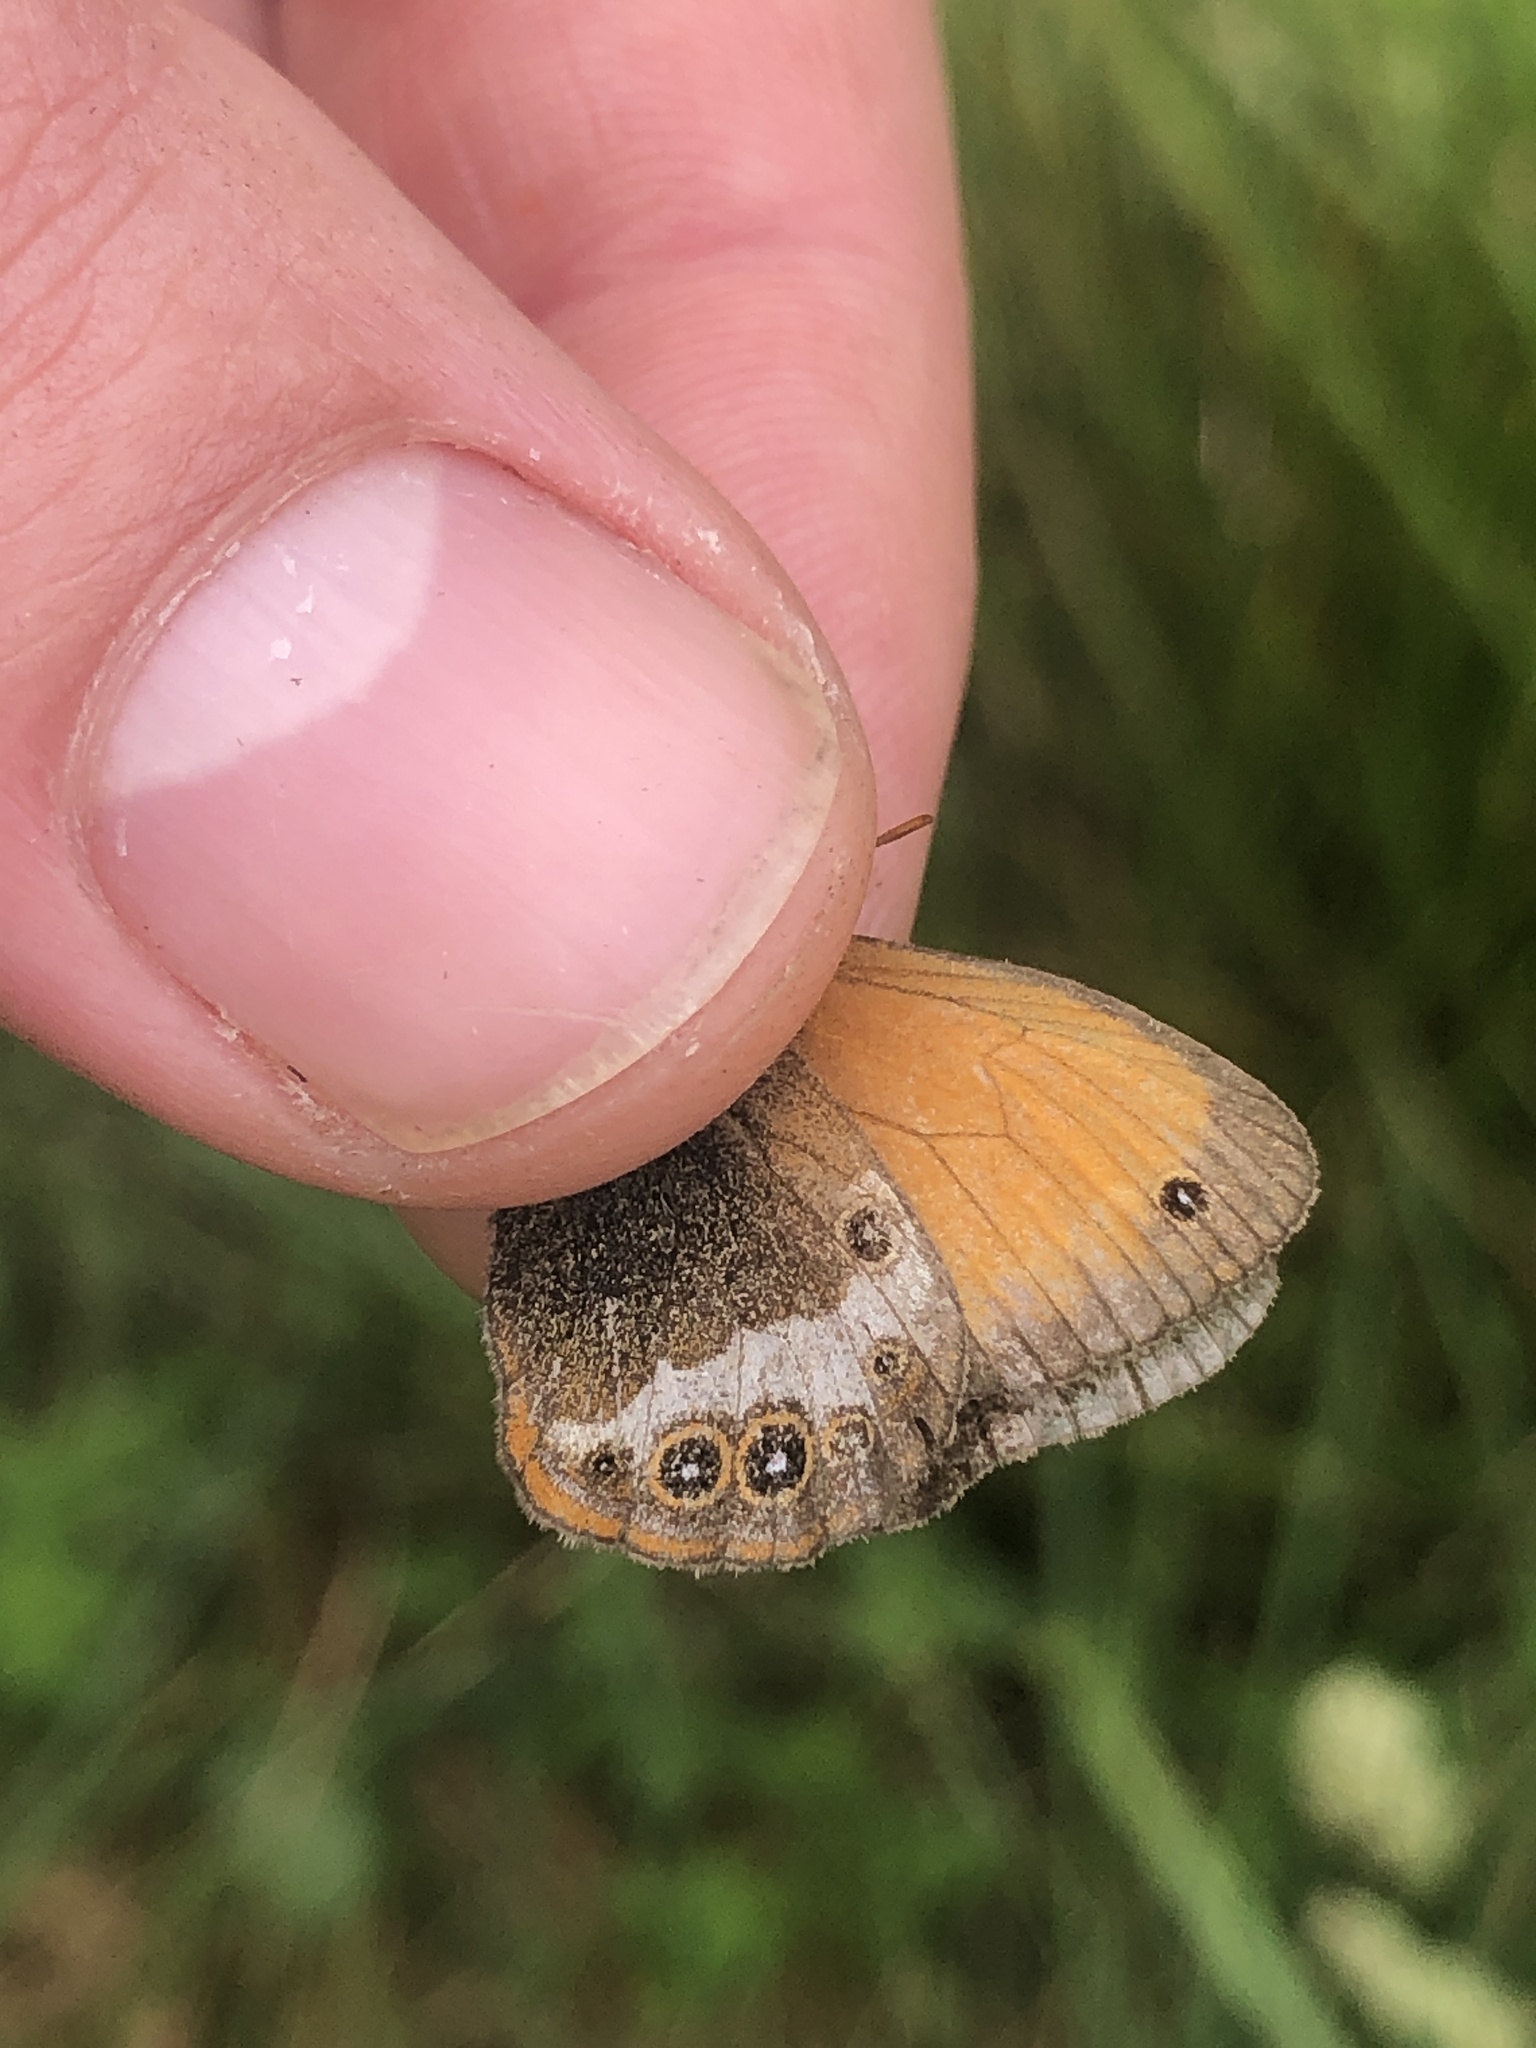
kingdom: Animalia
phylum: Arthropoda
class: Insecta
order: Lepidoptera
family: Nymphalidae
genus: Coenonympha
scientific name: Coenonympha arcania
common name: Pearly heath
